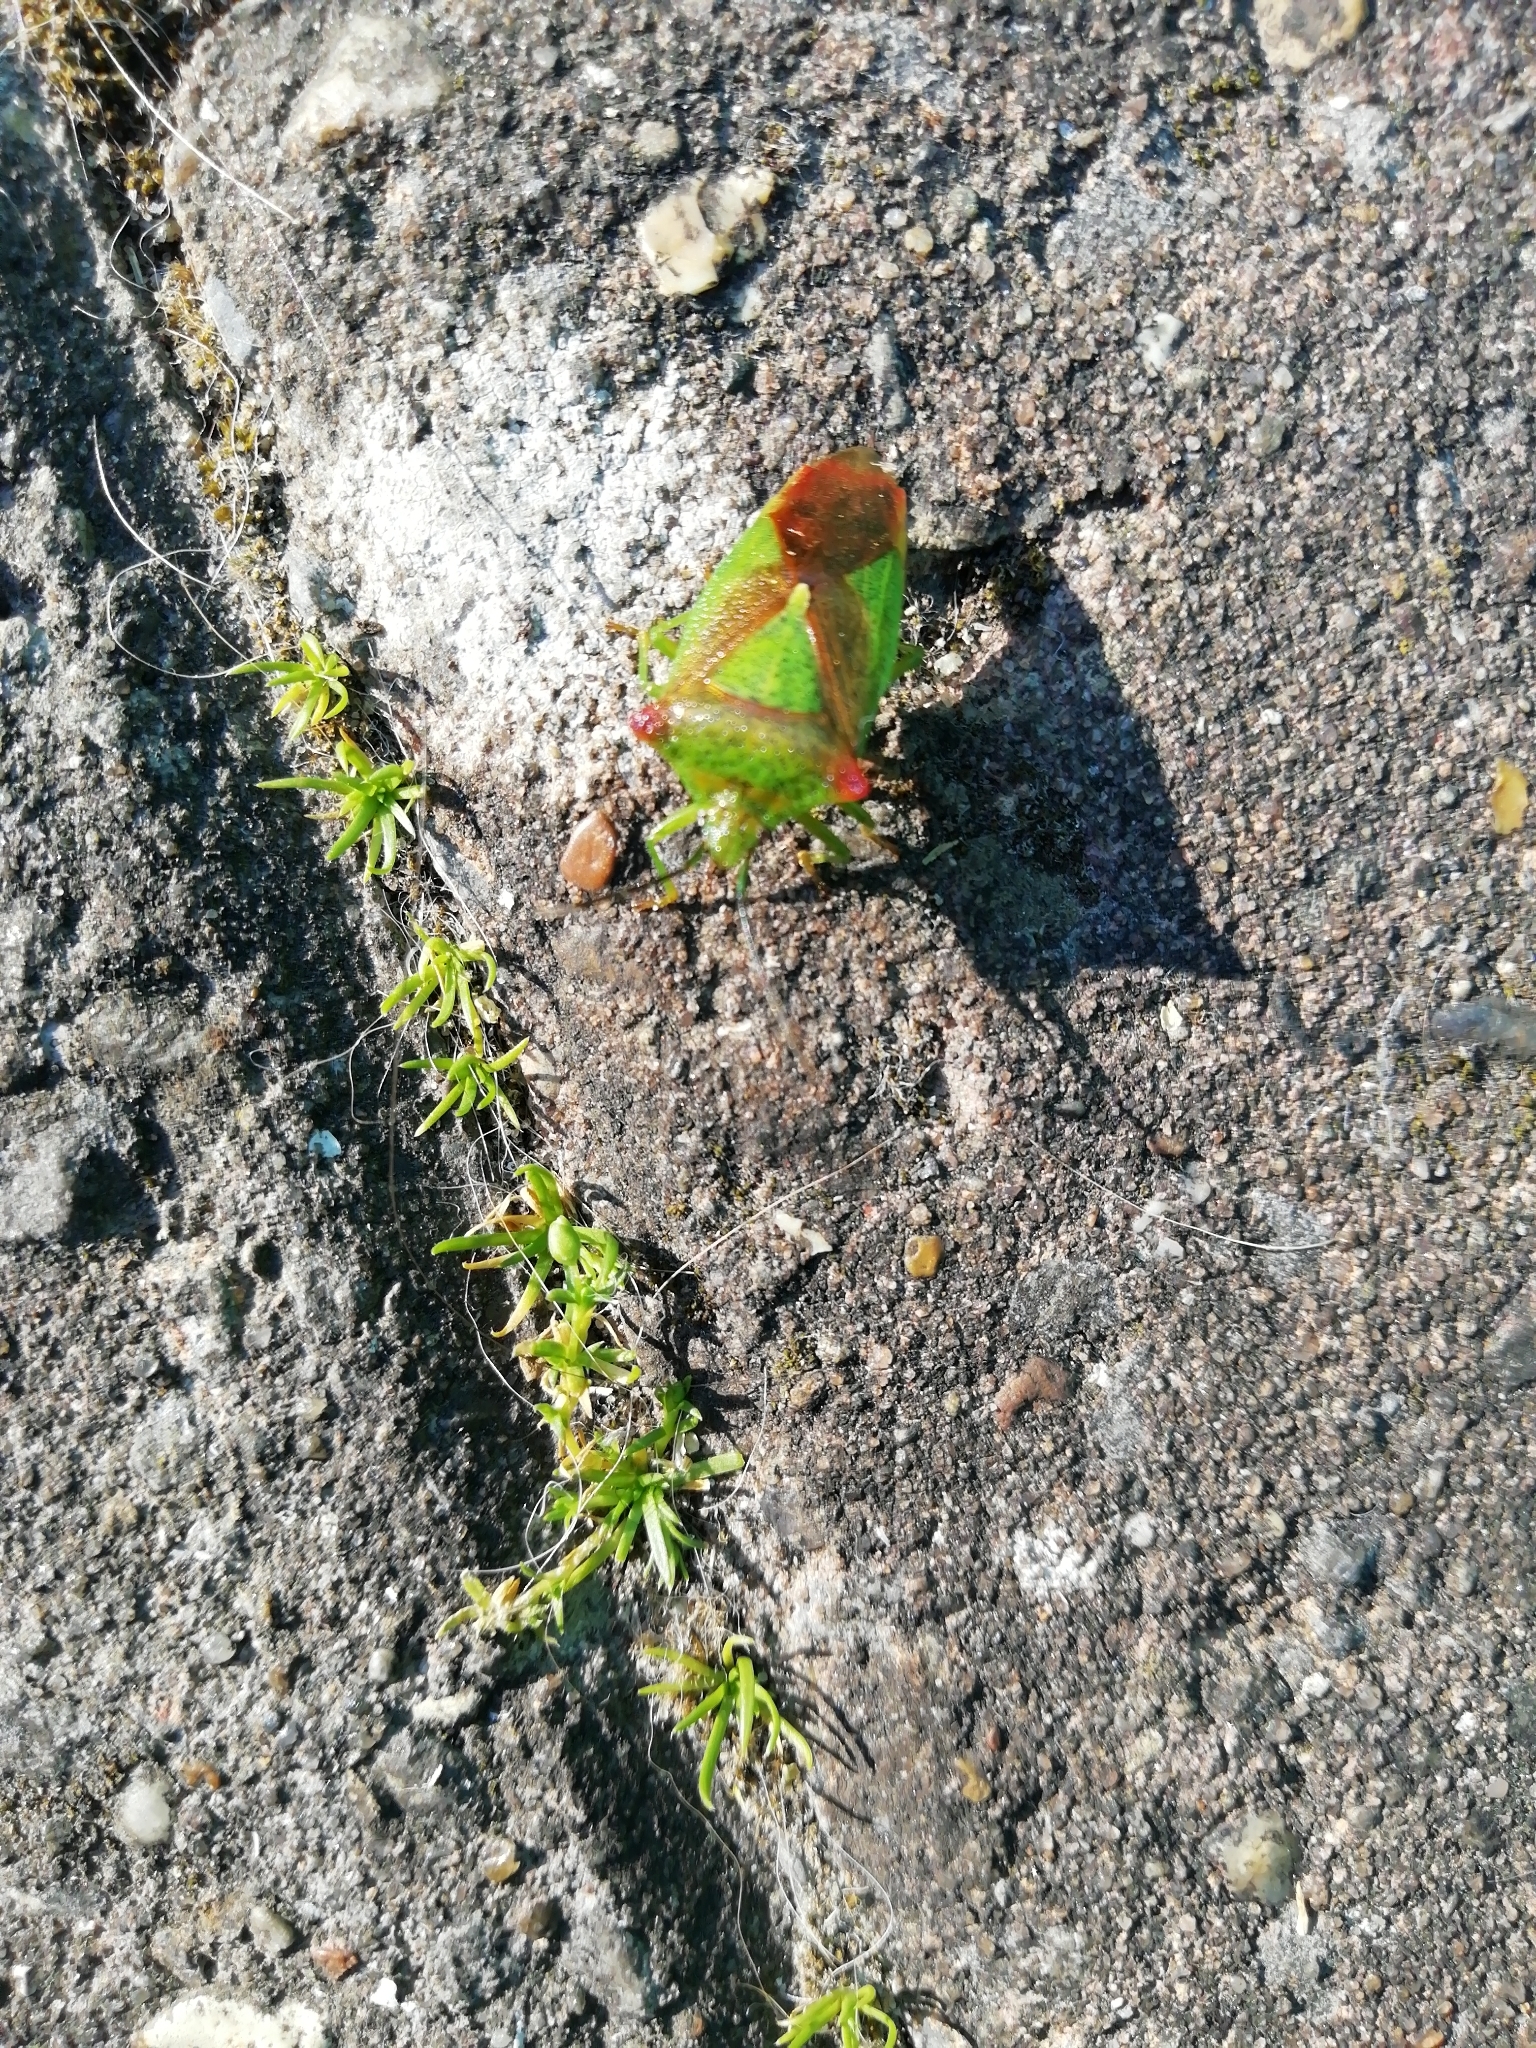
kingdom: Animalia
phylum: Arthropoda
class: Insecta
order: Hemiptera
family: Acanthosomatidae
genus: Acanthosoma
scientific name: Acanthosoma haemorrhoidale
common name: Hawthorn shieldbug
